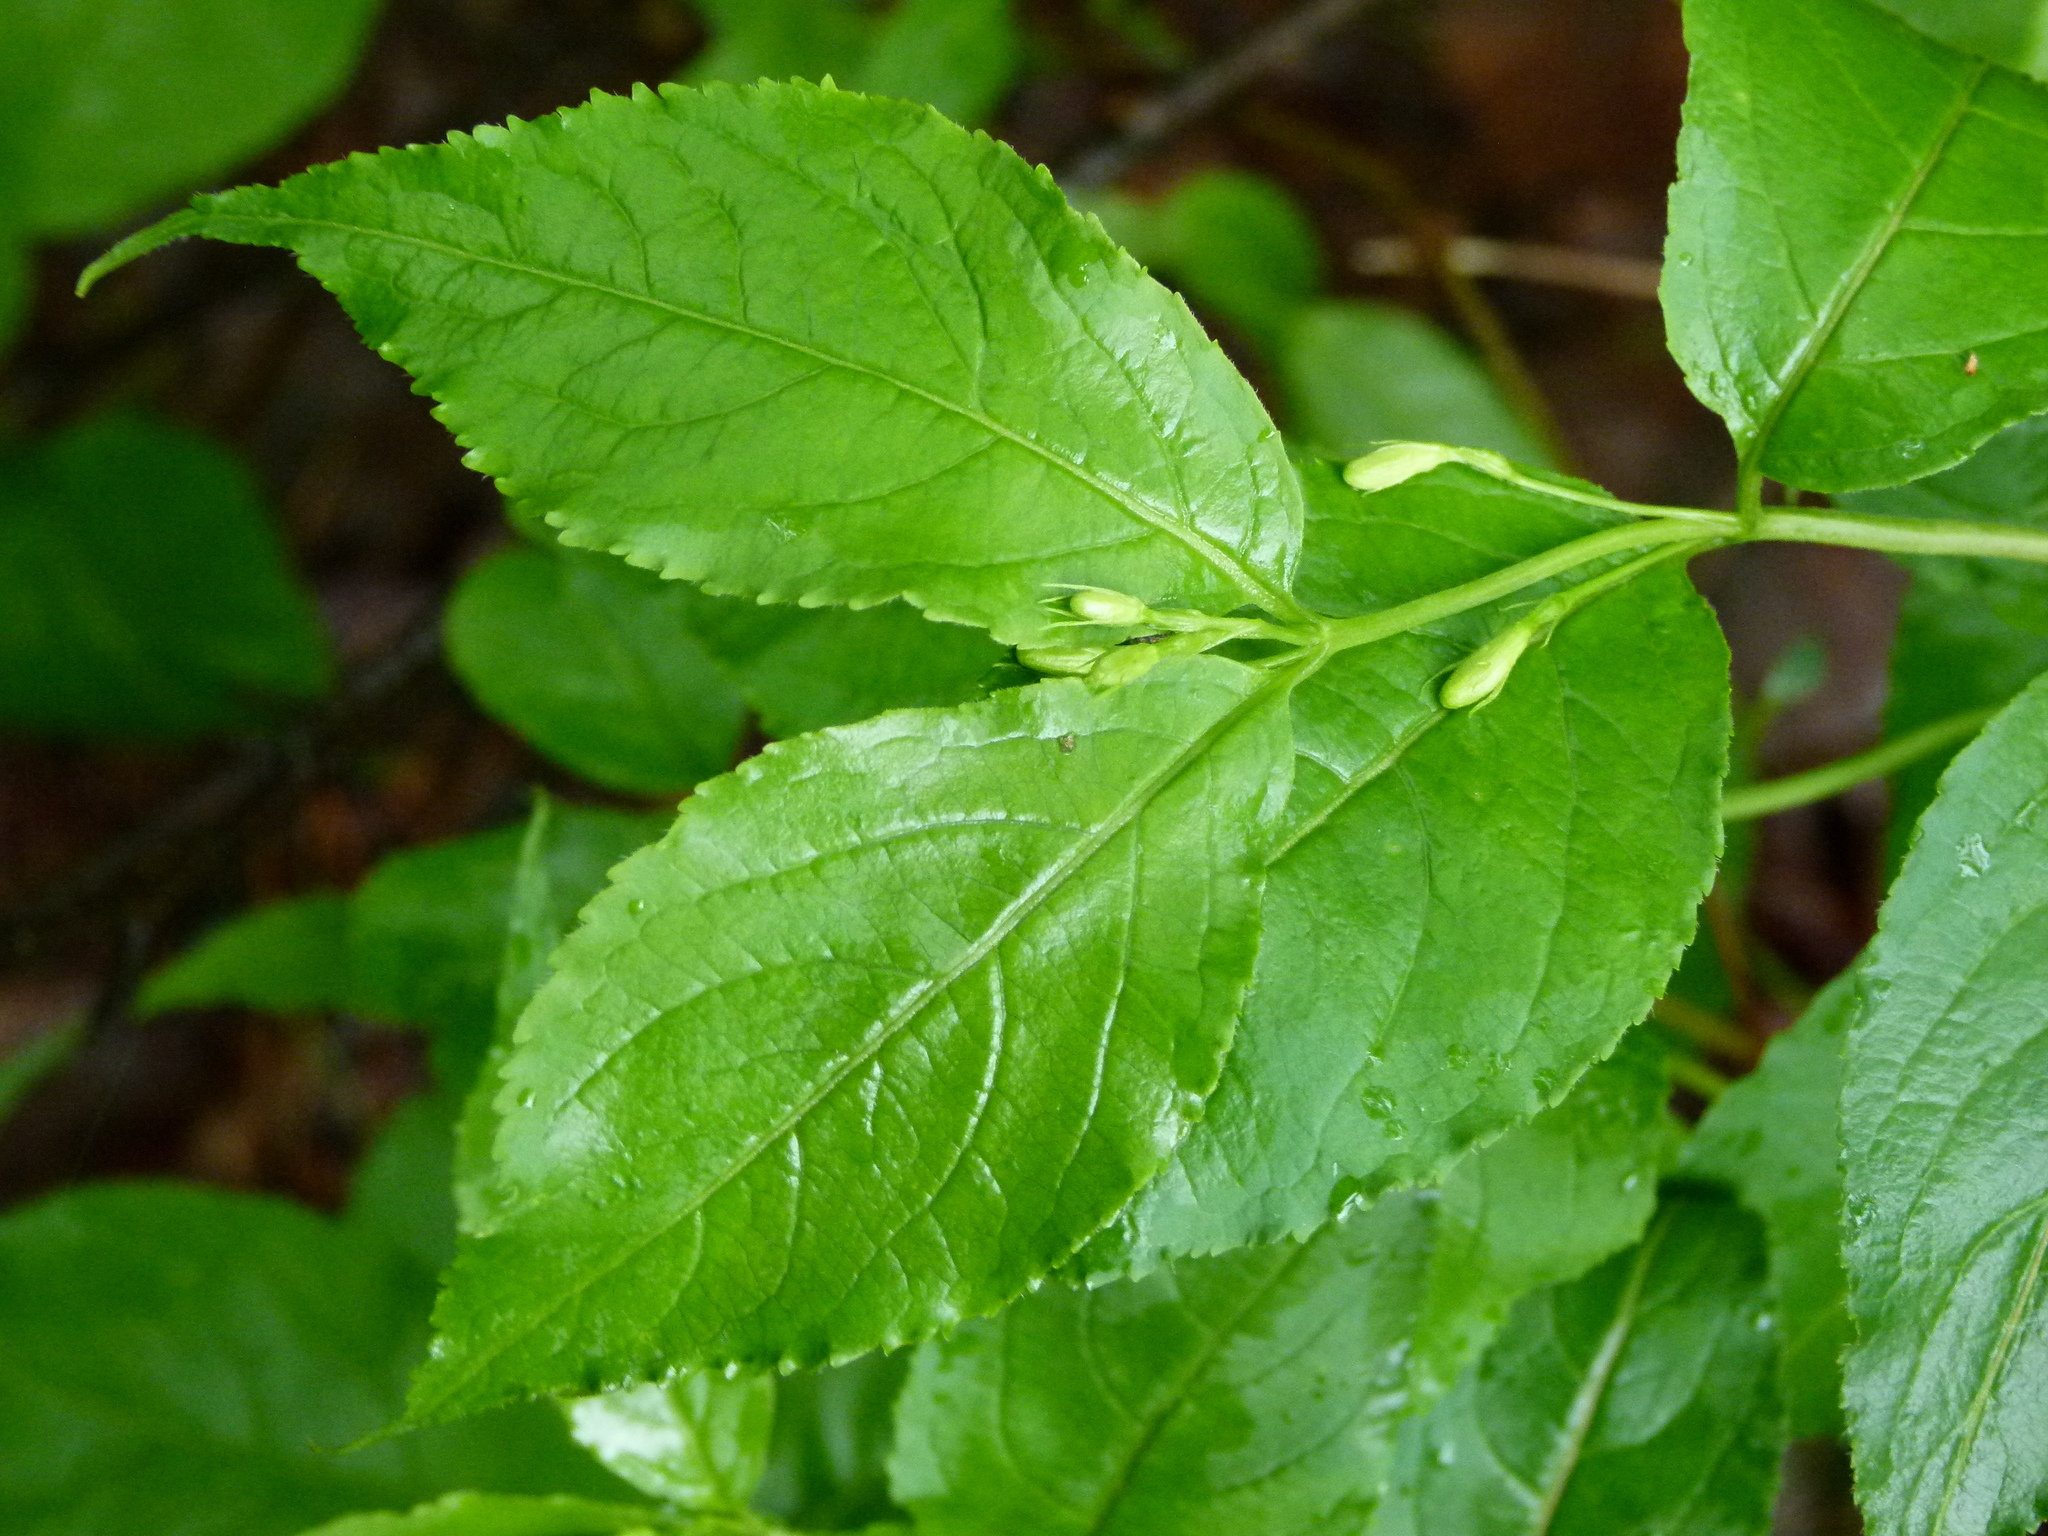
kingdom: Plantae
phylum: Tracheophyta
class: Magnoliopsida
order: Dipsacales
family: Caprifoliaceae
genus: Diervilla
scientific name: Diervilla lonicera
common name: Bush-honeysuckle
